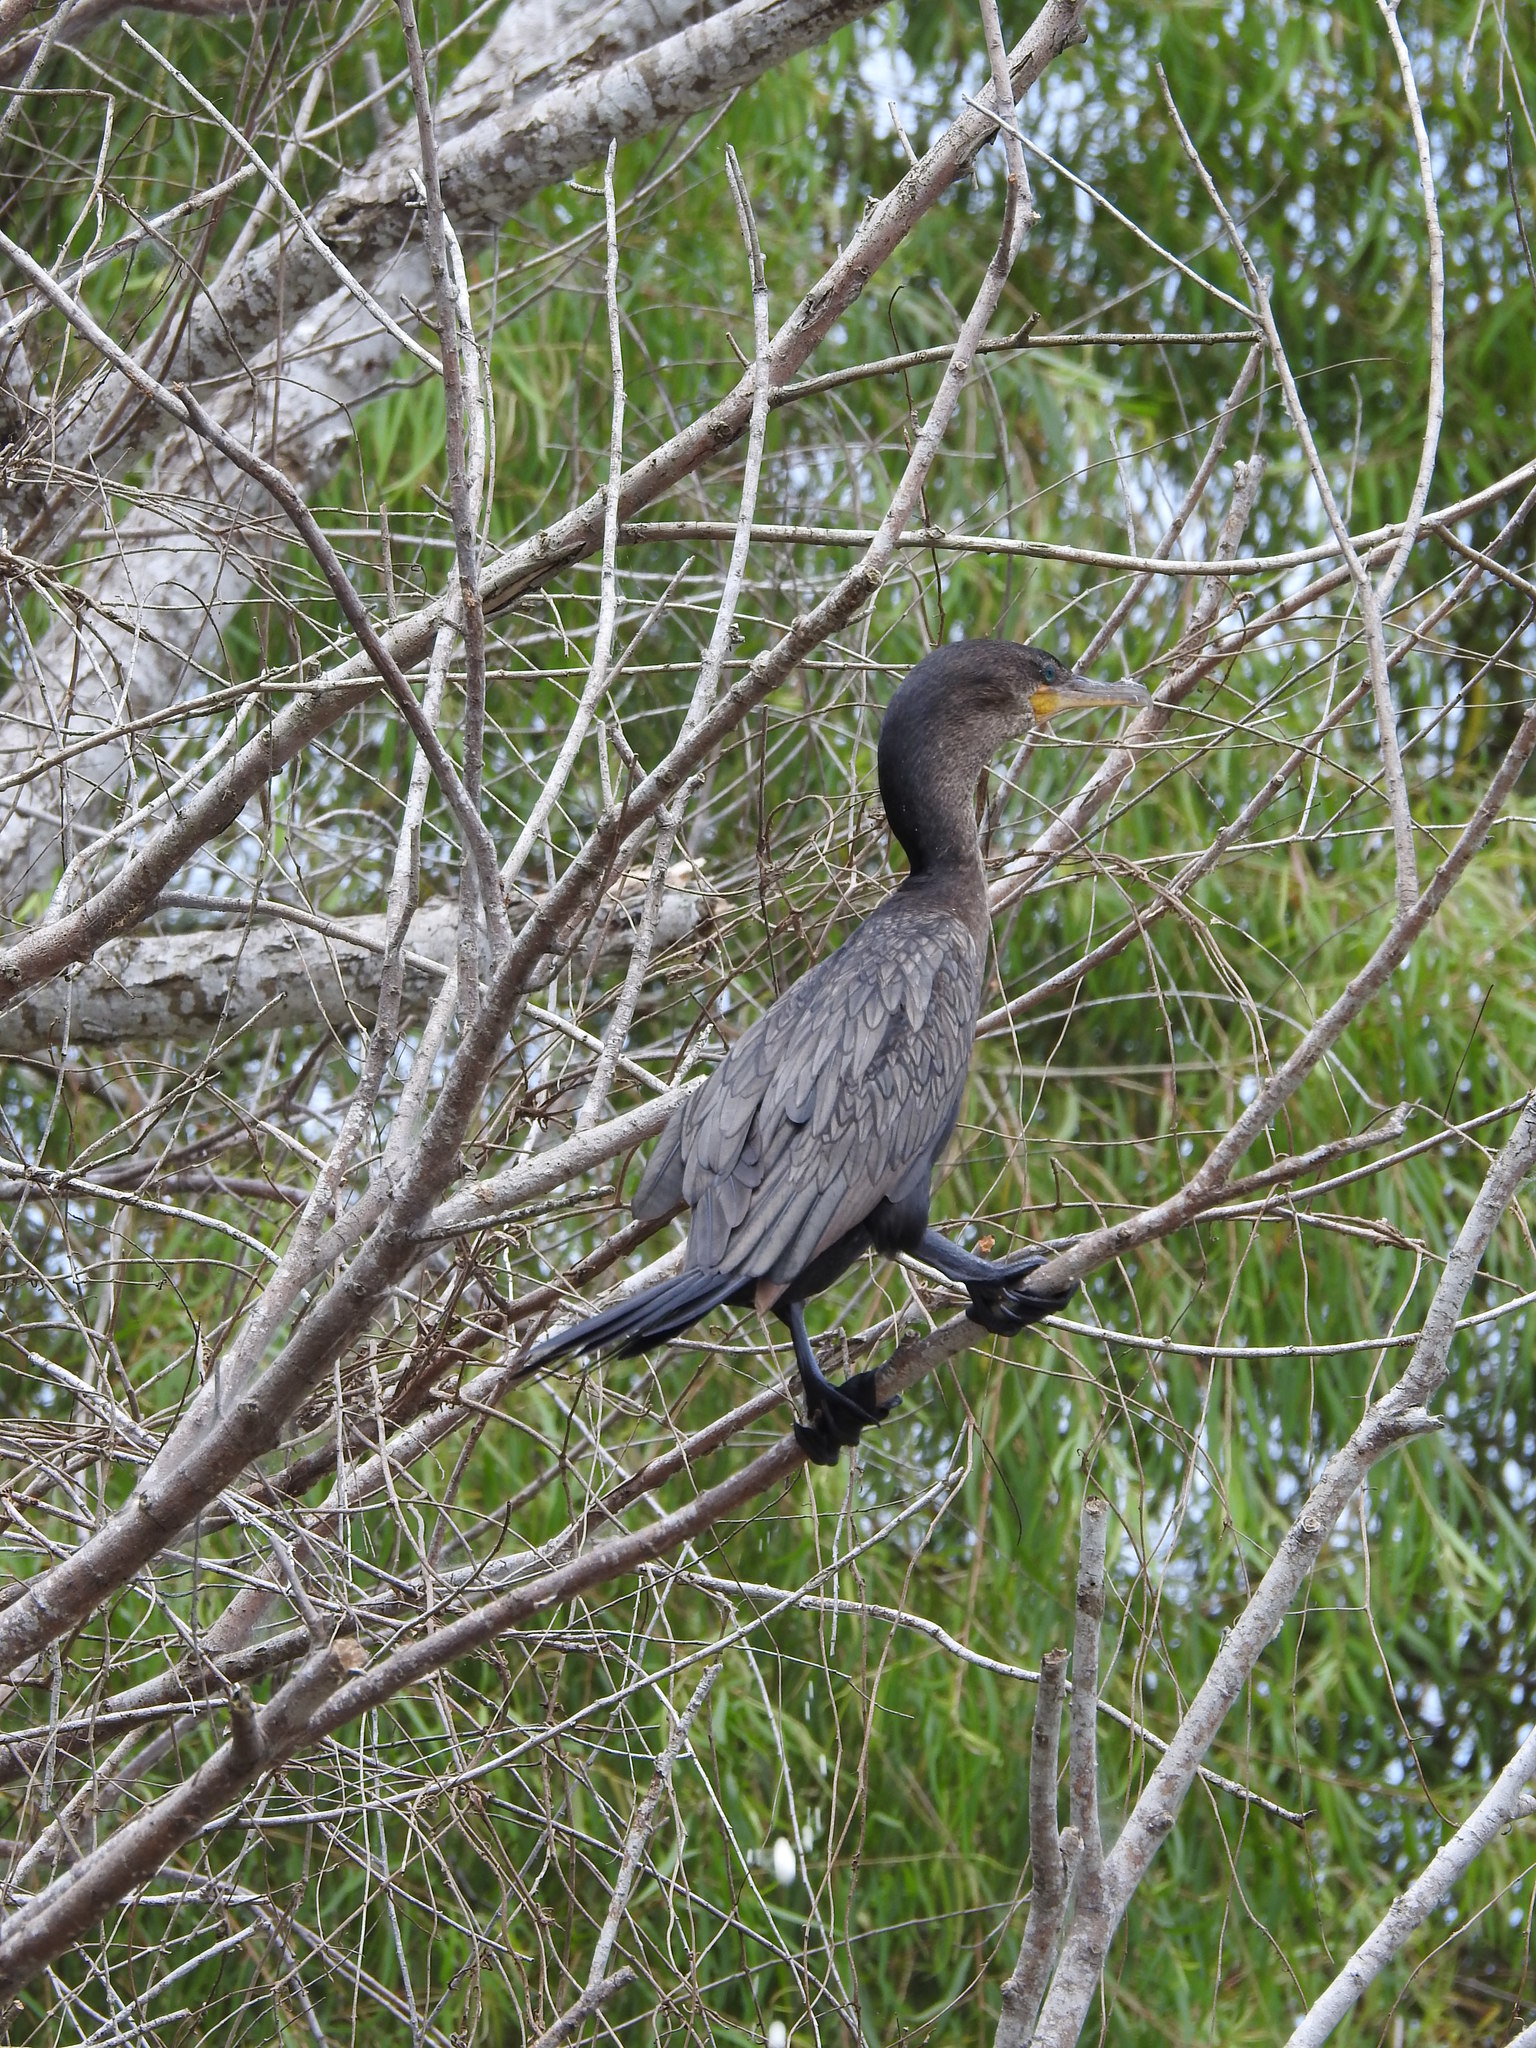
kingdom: Animalia
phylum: Chordata
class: Aves
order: Suliformes
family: Phalacrocoracidae
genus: Phalacrocorax
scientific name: Phalacrocorax brasilianus
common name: Neotropic cormorant
